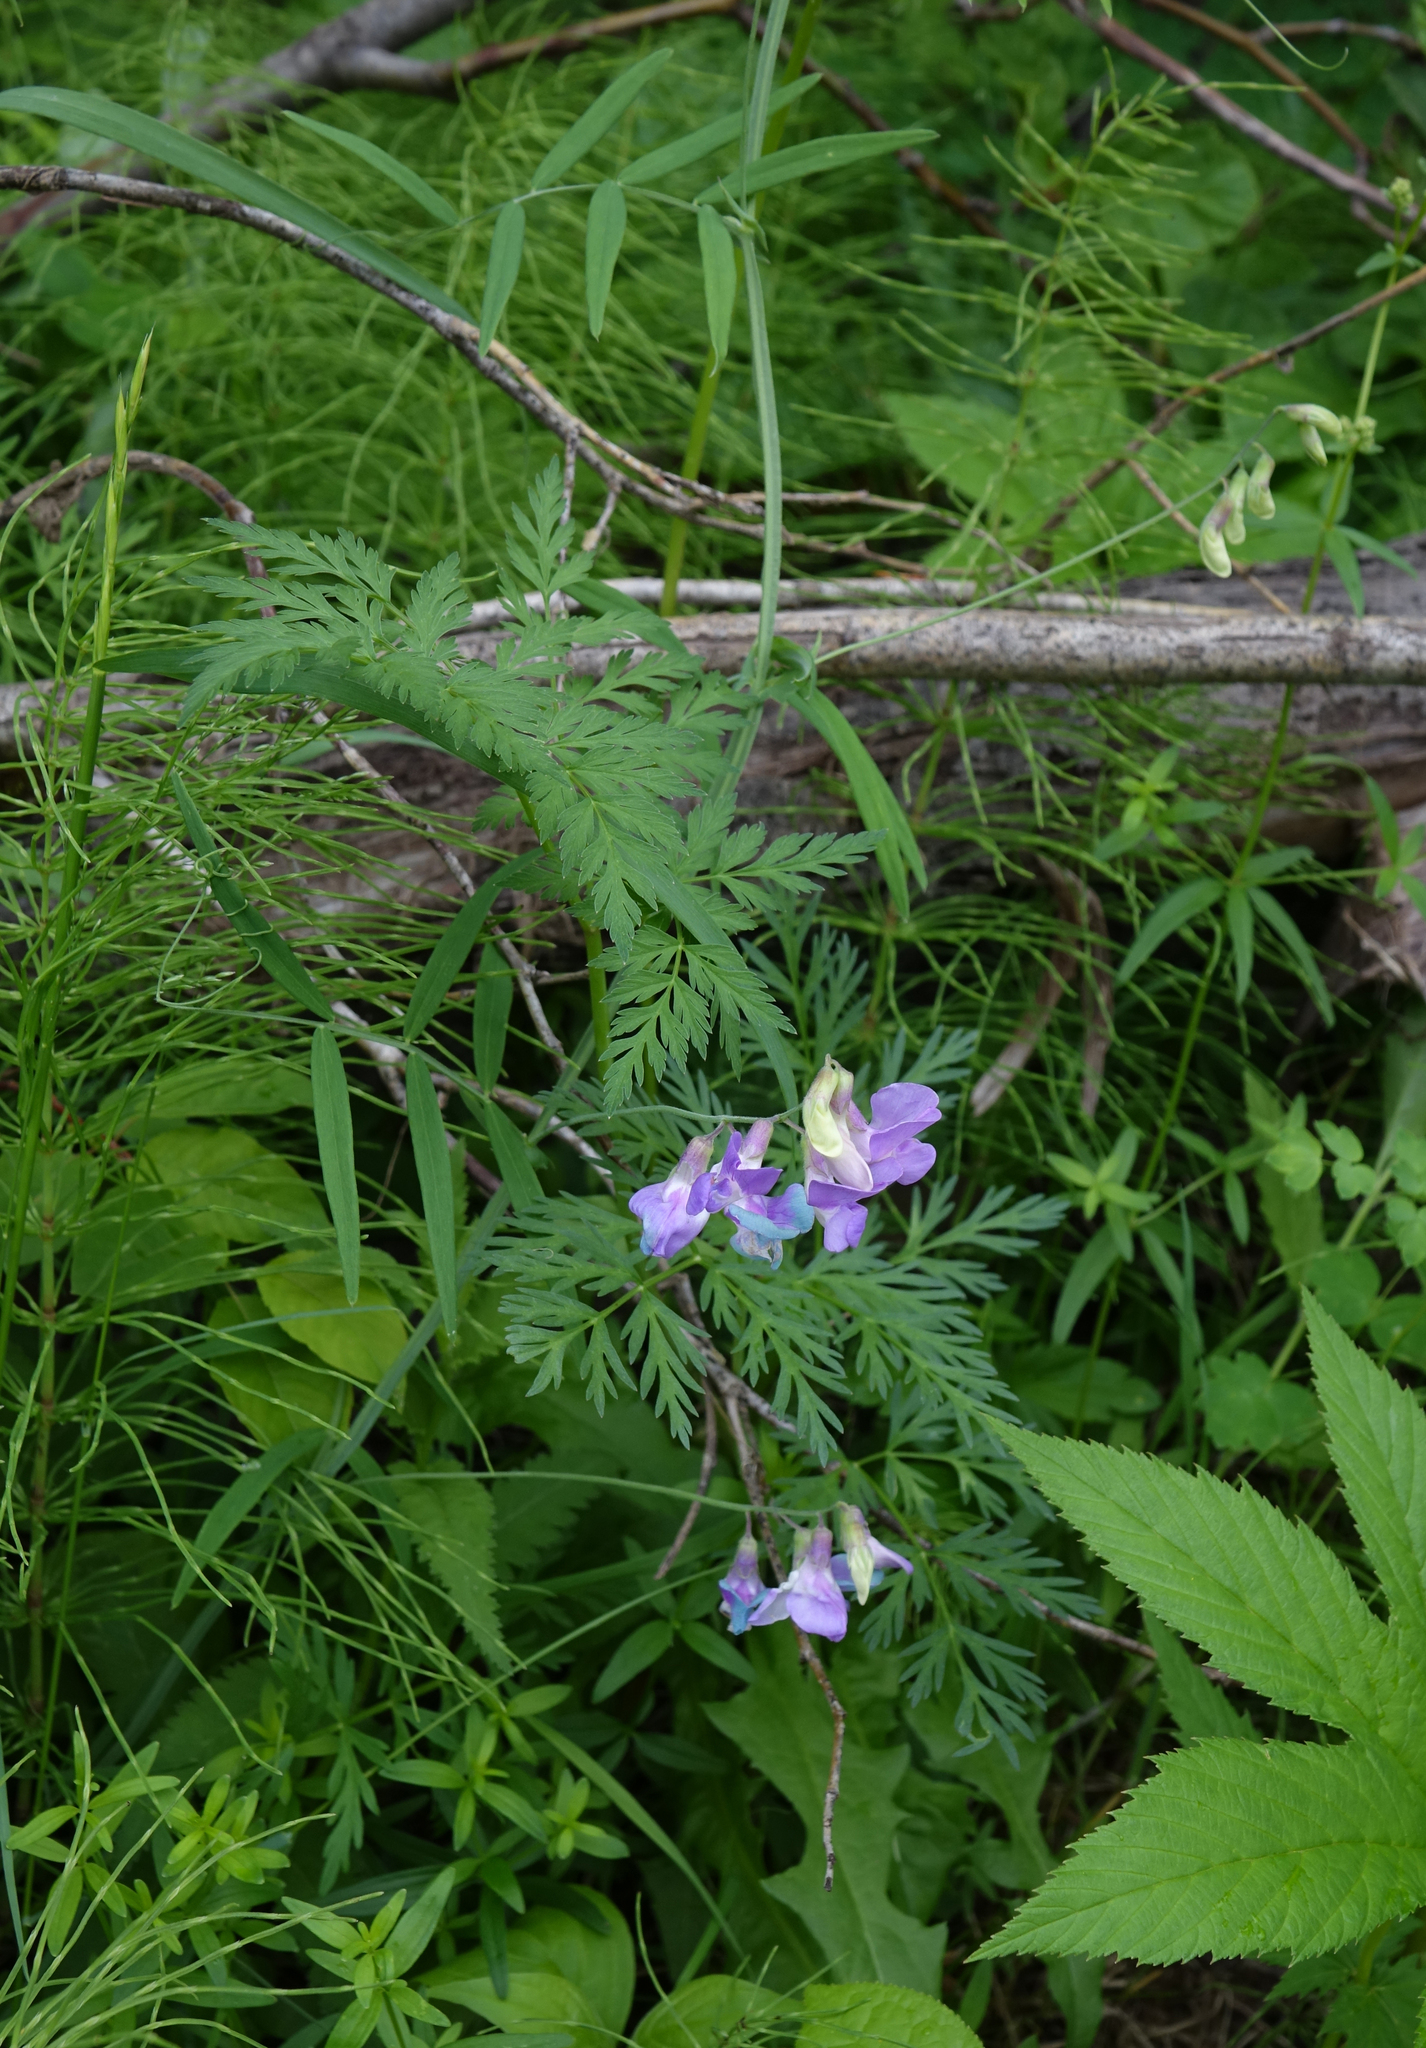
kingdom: Plantae
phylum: Tracheophyta
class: Magnoliopsida
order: Fabales
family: Fabaceae
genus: Lathyrus
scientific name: Lathyrus palustris
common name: Marsh pea
